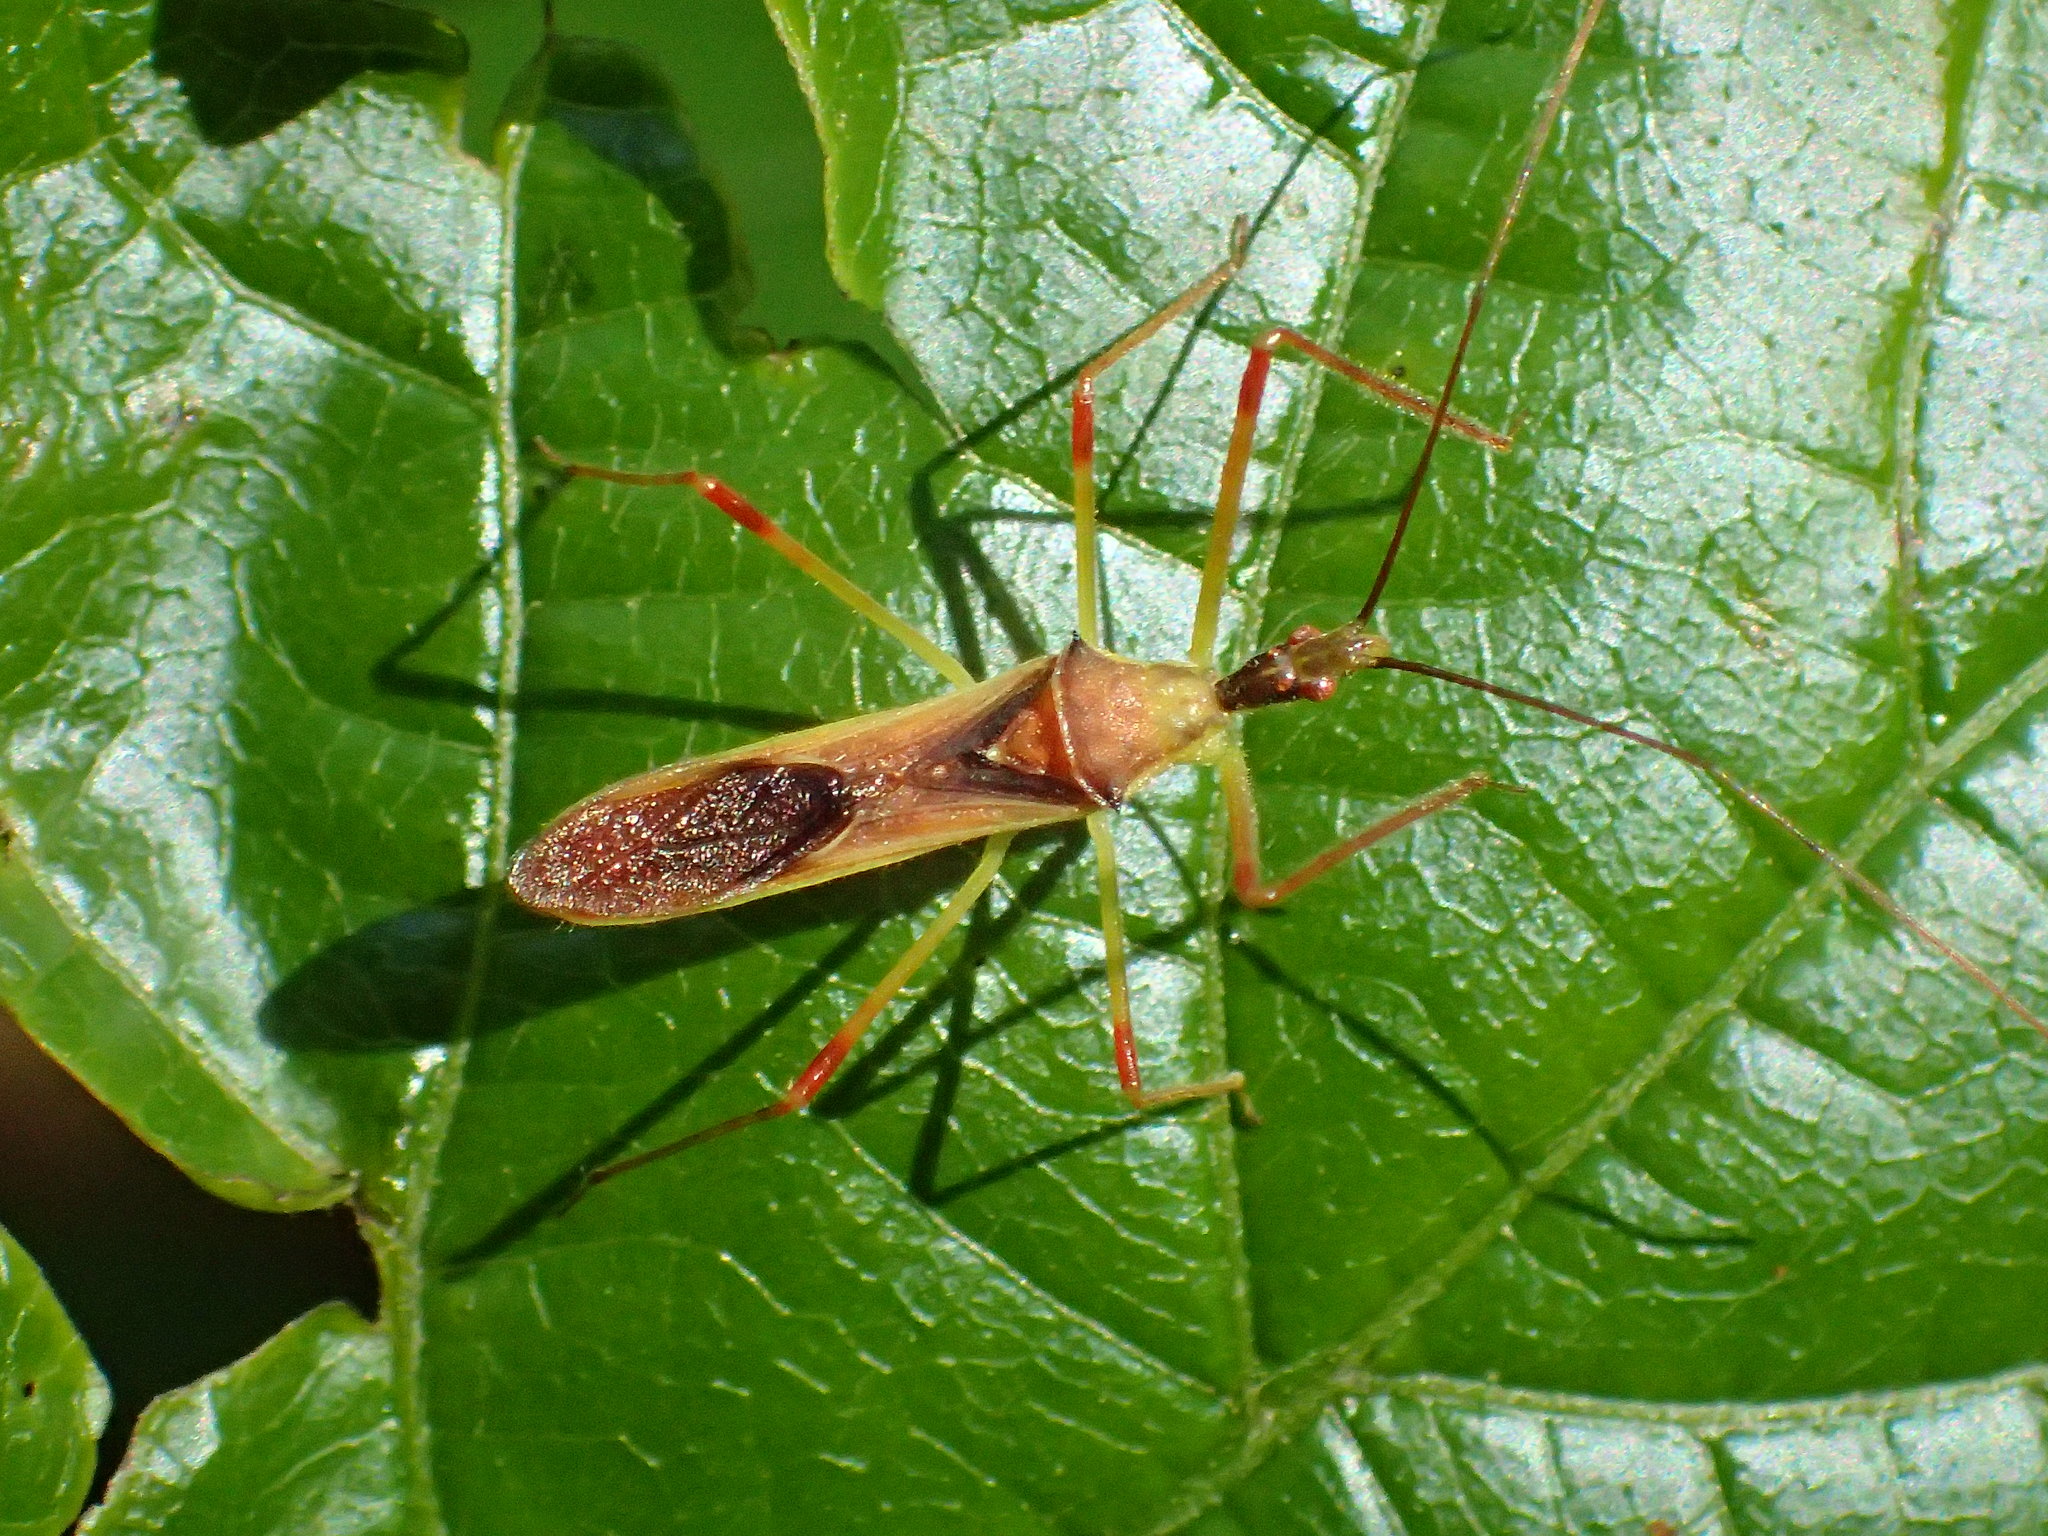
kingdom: Animalia
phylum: Arthropoda
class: Insecta
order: Hemiptera
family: Reduviidae
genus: Zelus
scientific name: Zelus luridus
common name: Pale green assassin bug
